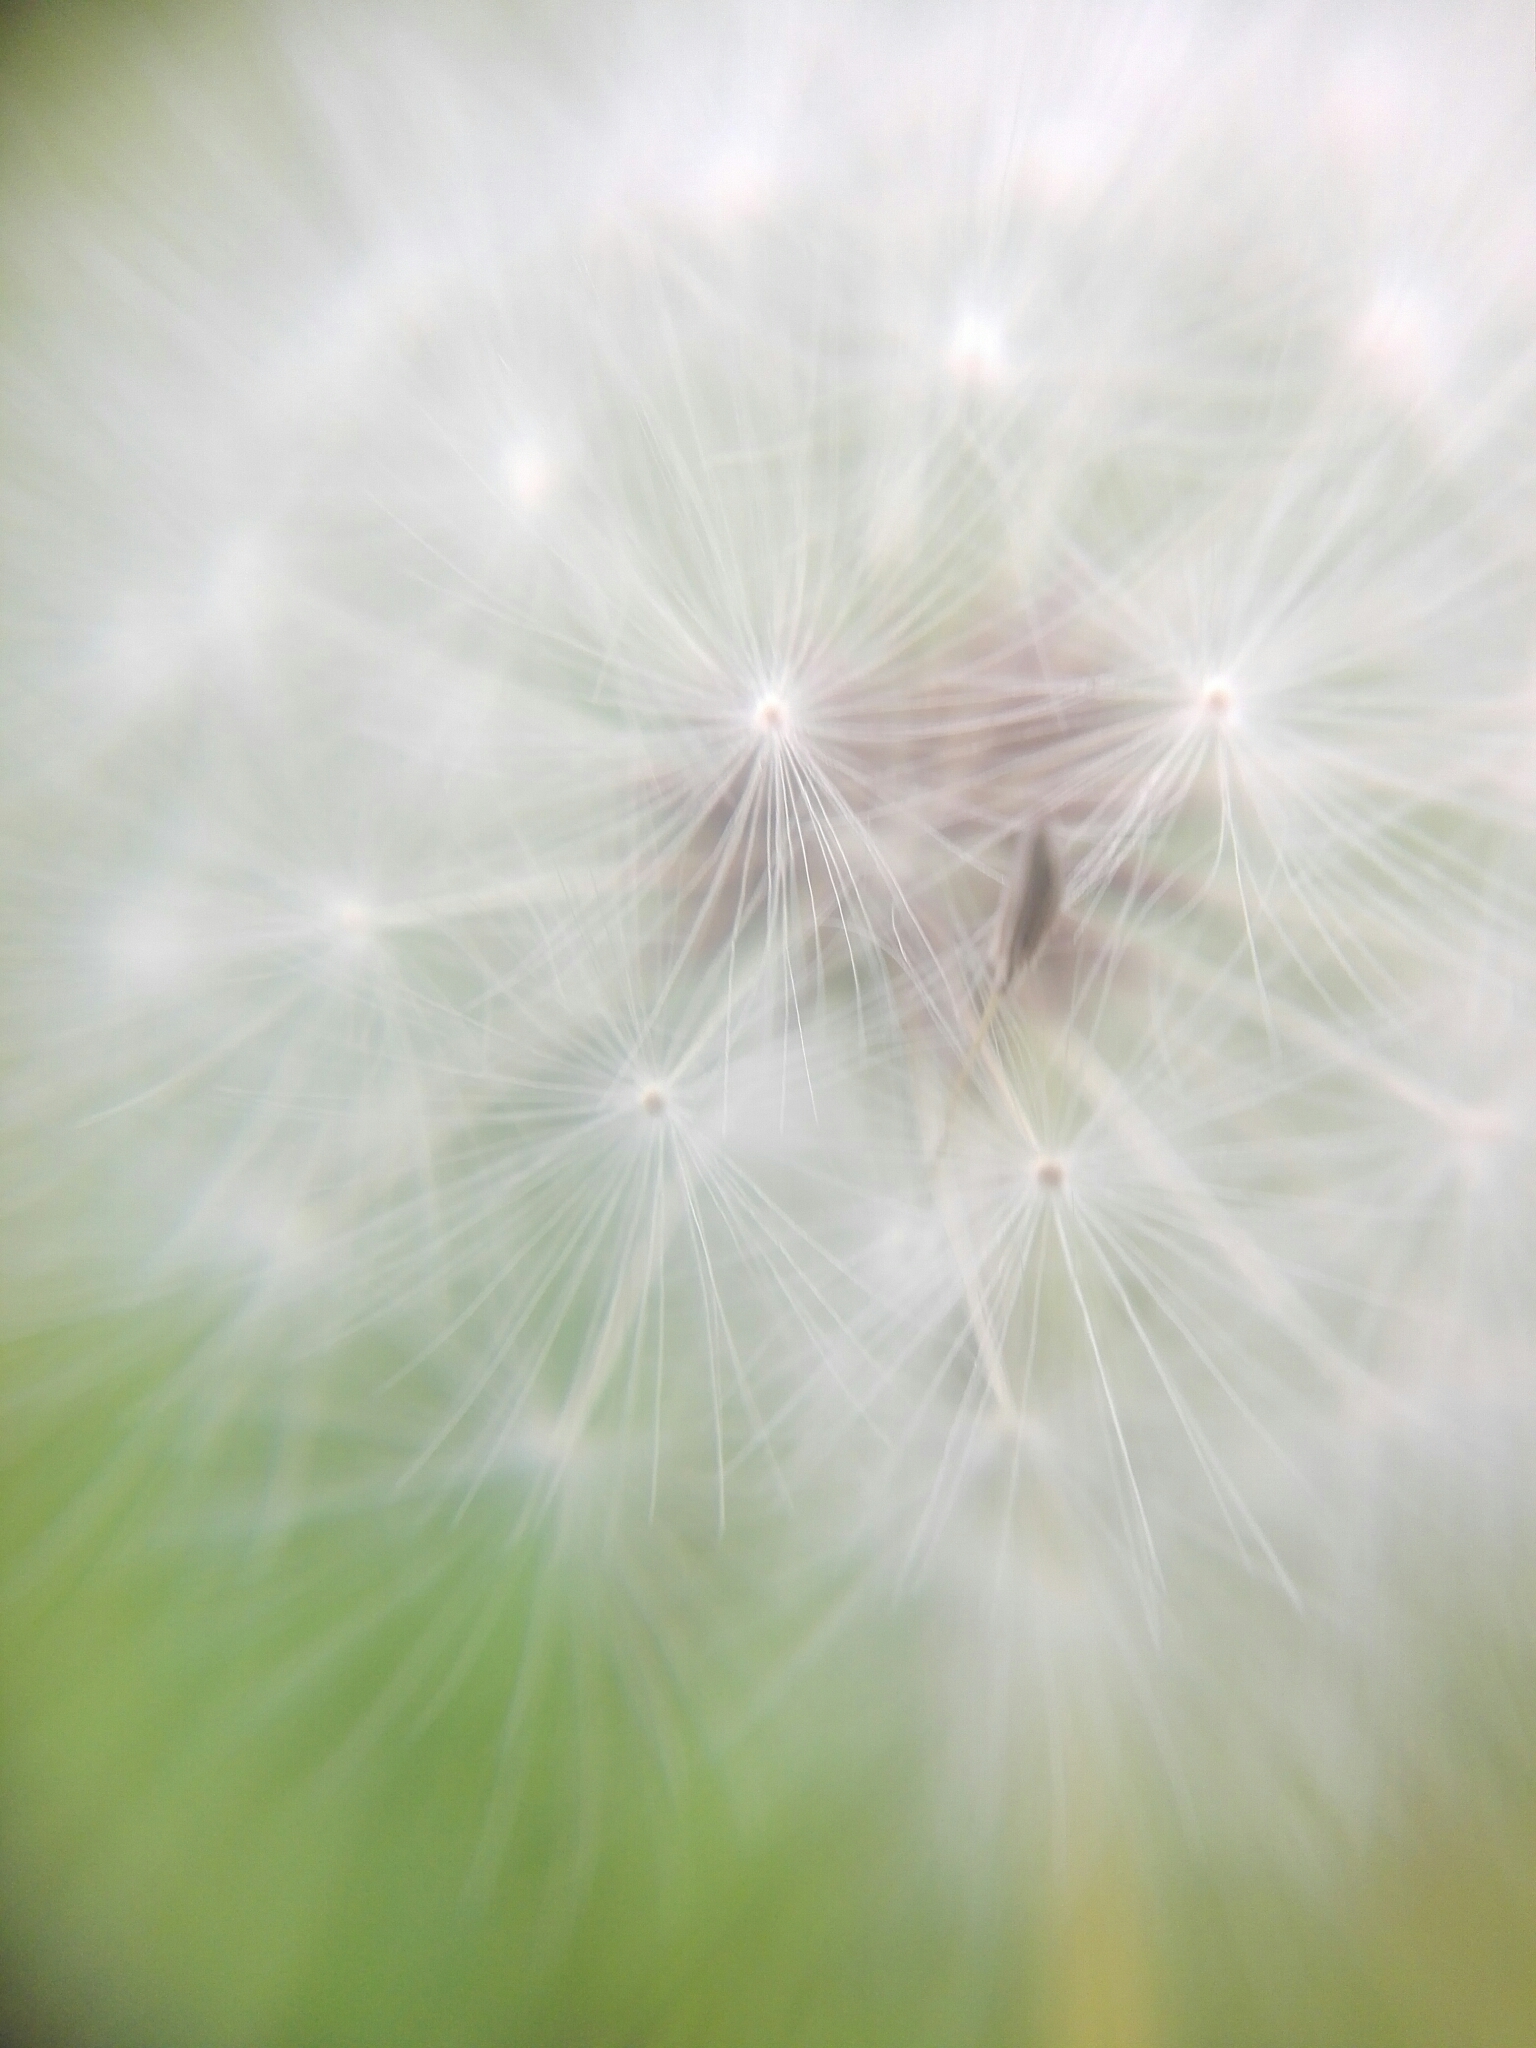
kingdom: Plantae
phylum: Tracheophyta
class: Magnoliopsida
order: Asterales
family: Asteraceae
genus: Taraxacum
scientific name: Taraxacum officinale
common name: Common dandelion
